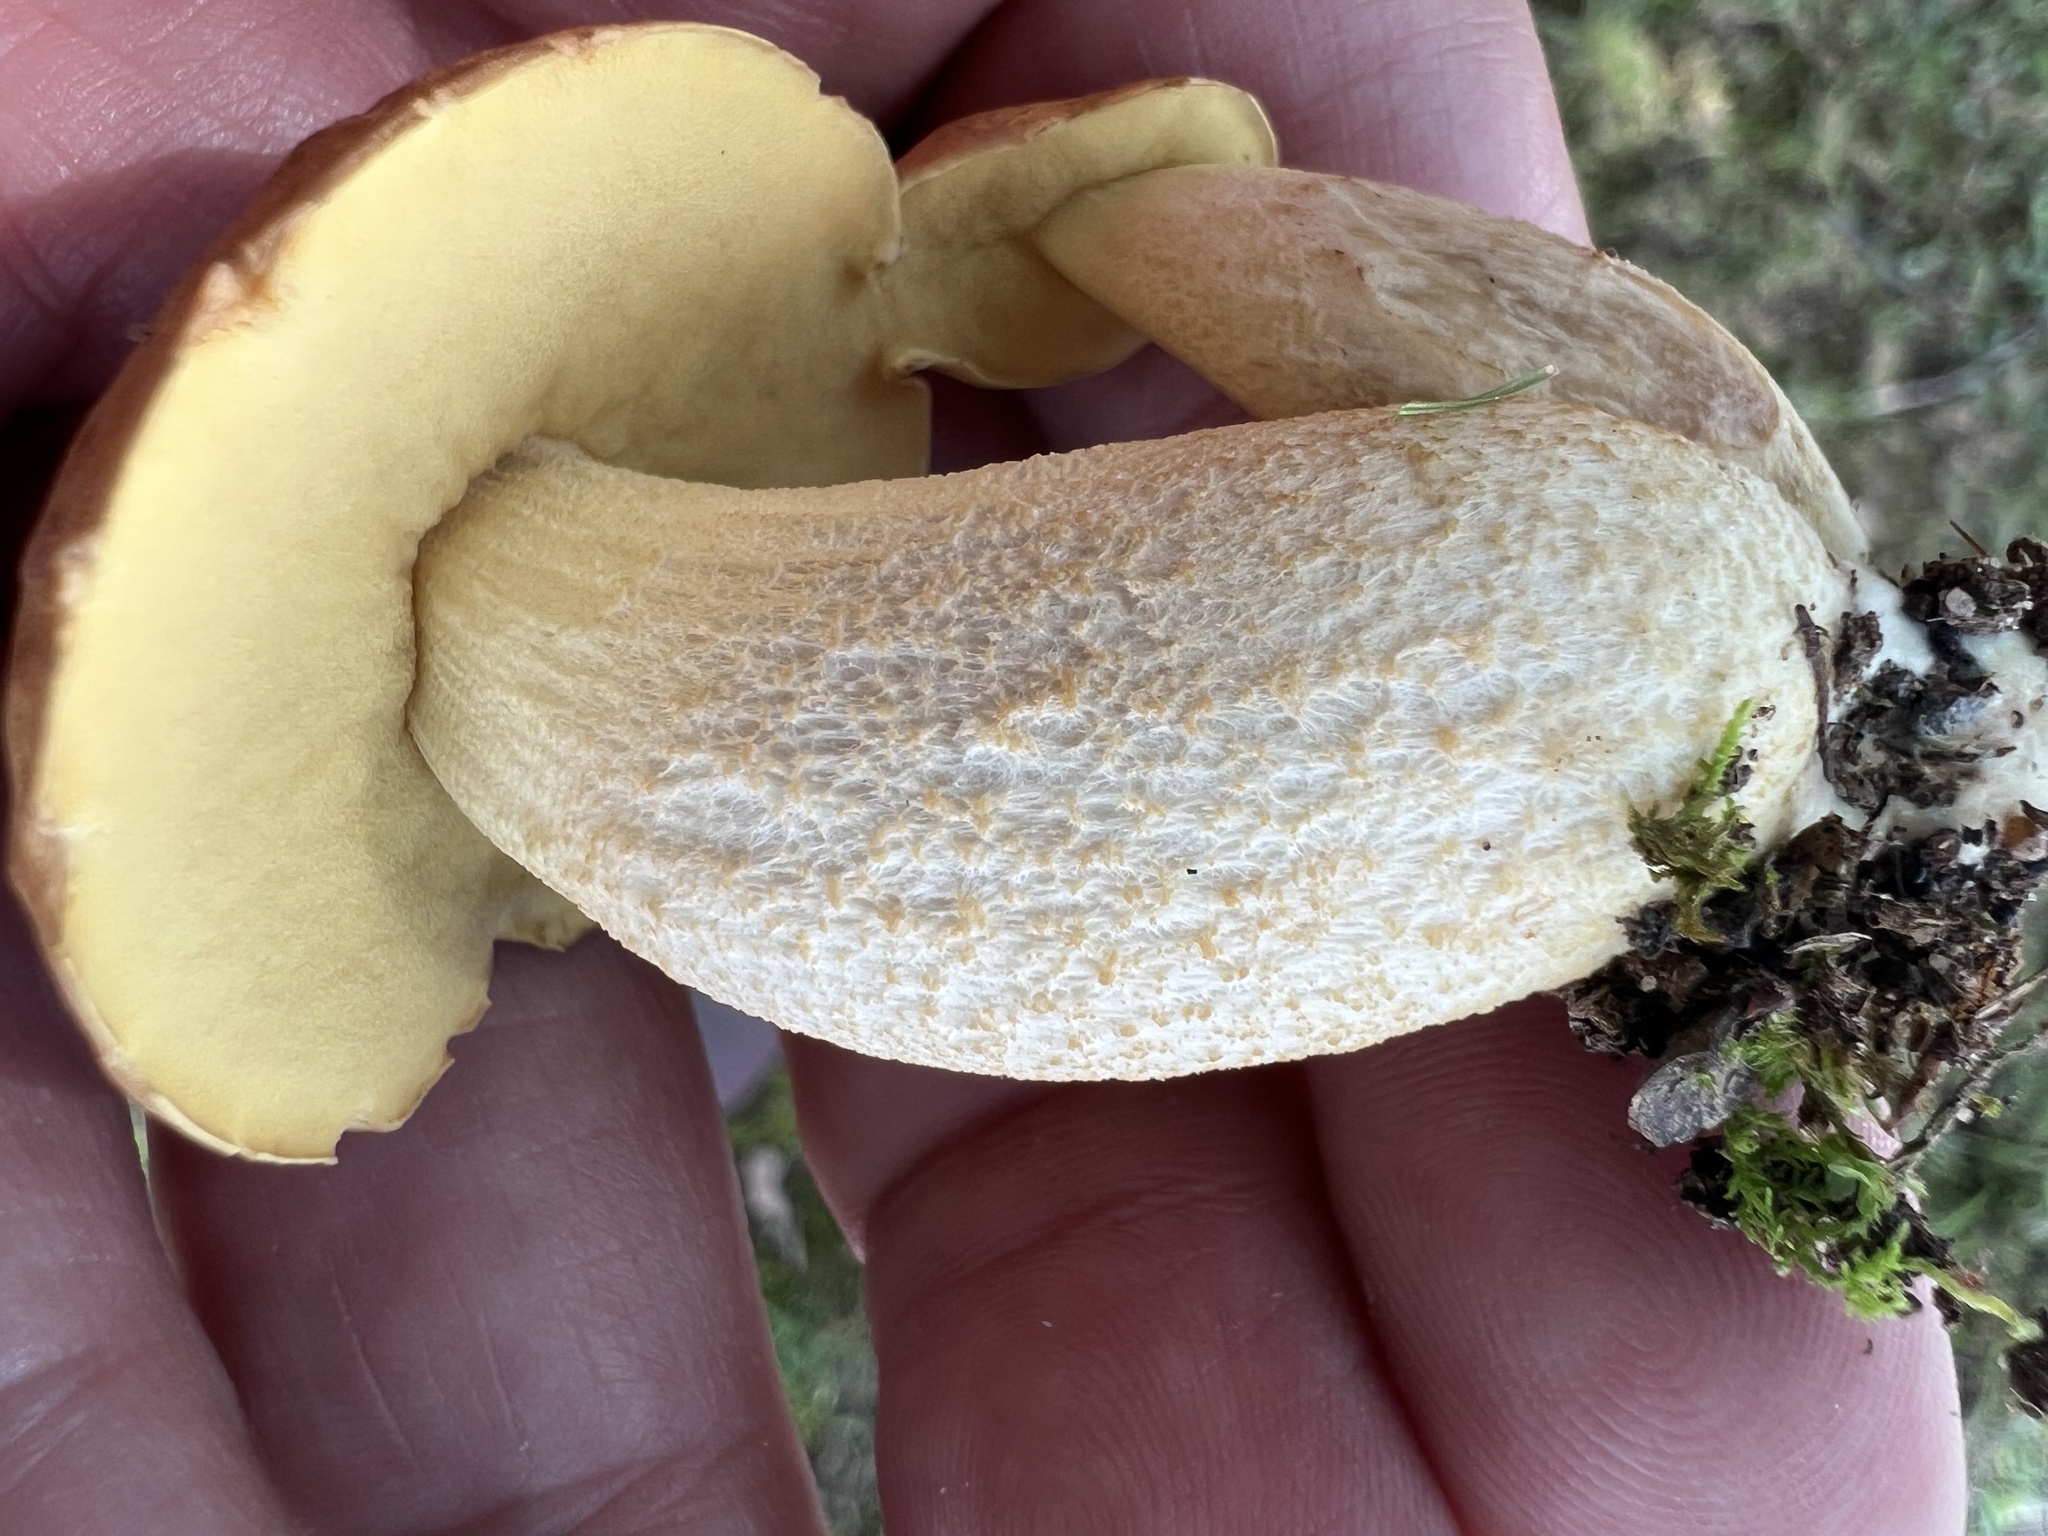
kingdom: Fungi
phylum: Basidiomycota
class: Agaricomycetes
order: Boletales
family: Boletaceae
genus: Leccinellum
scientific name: Leccinellum rugosiceps
